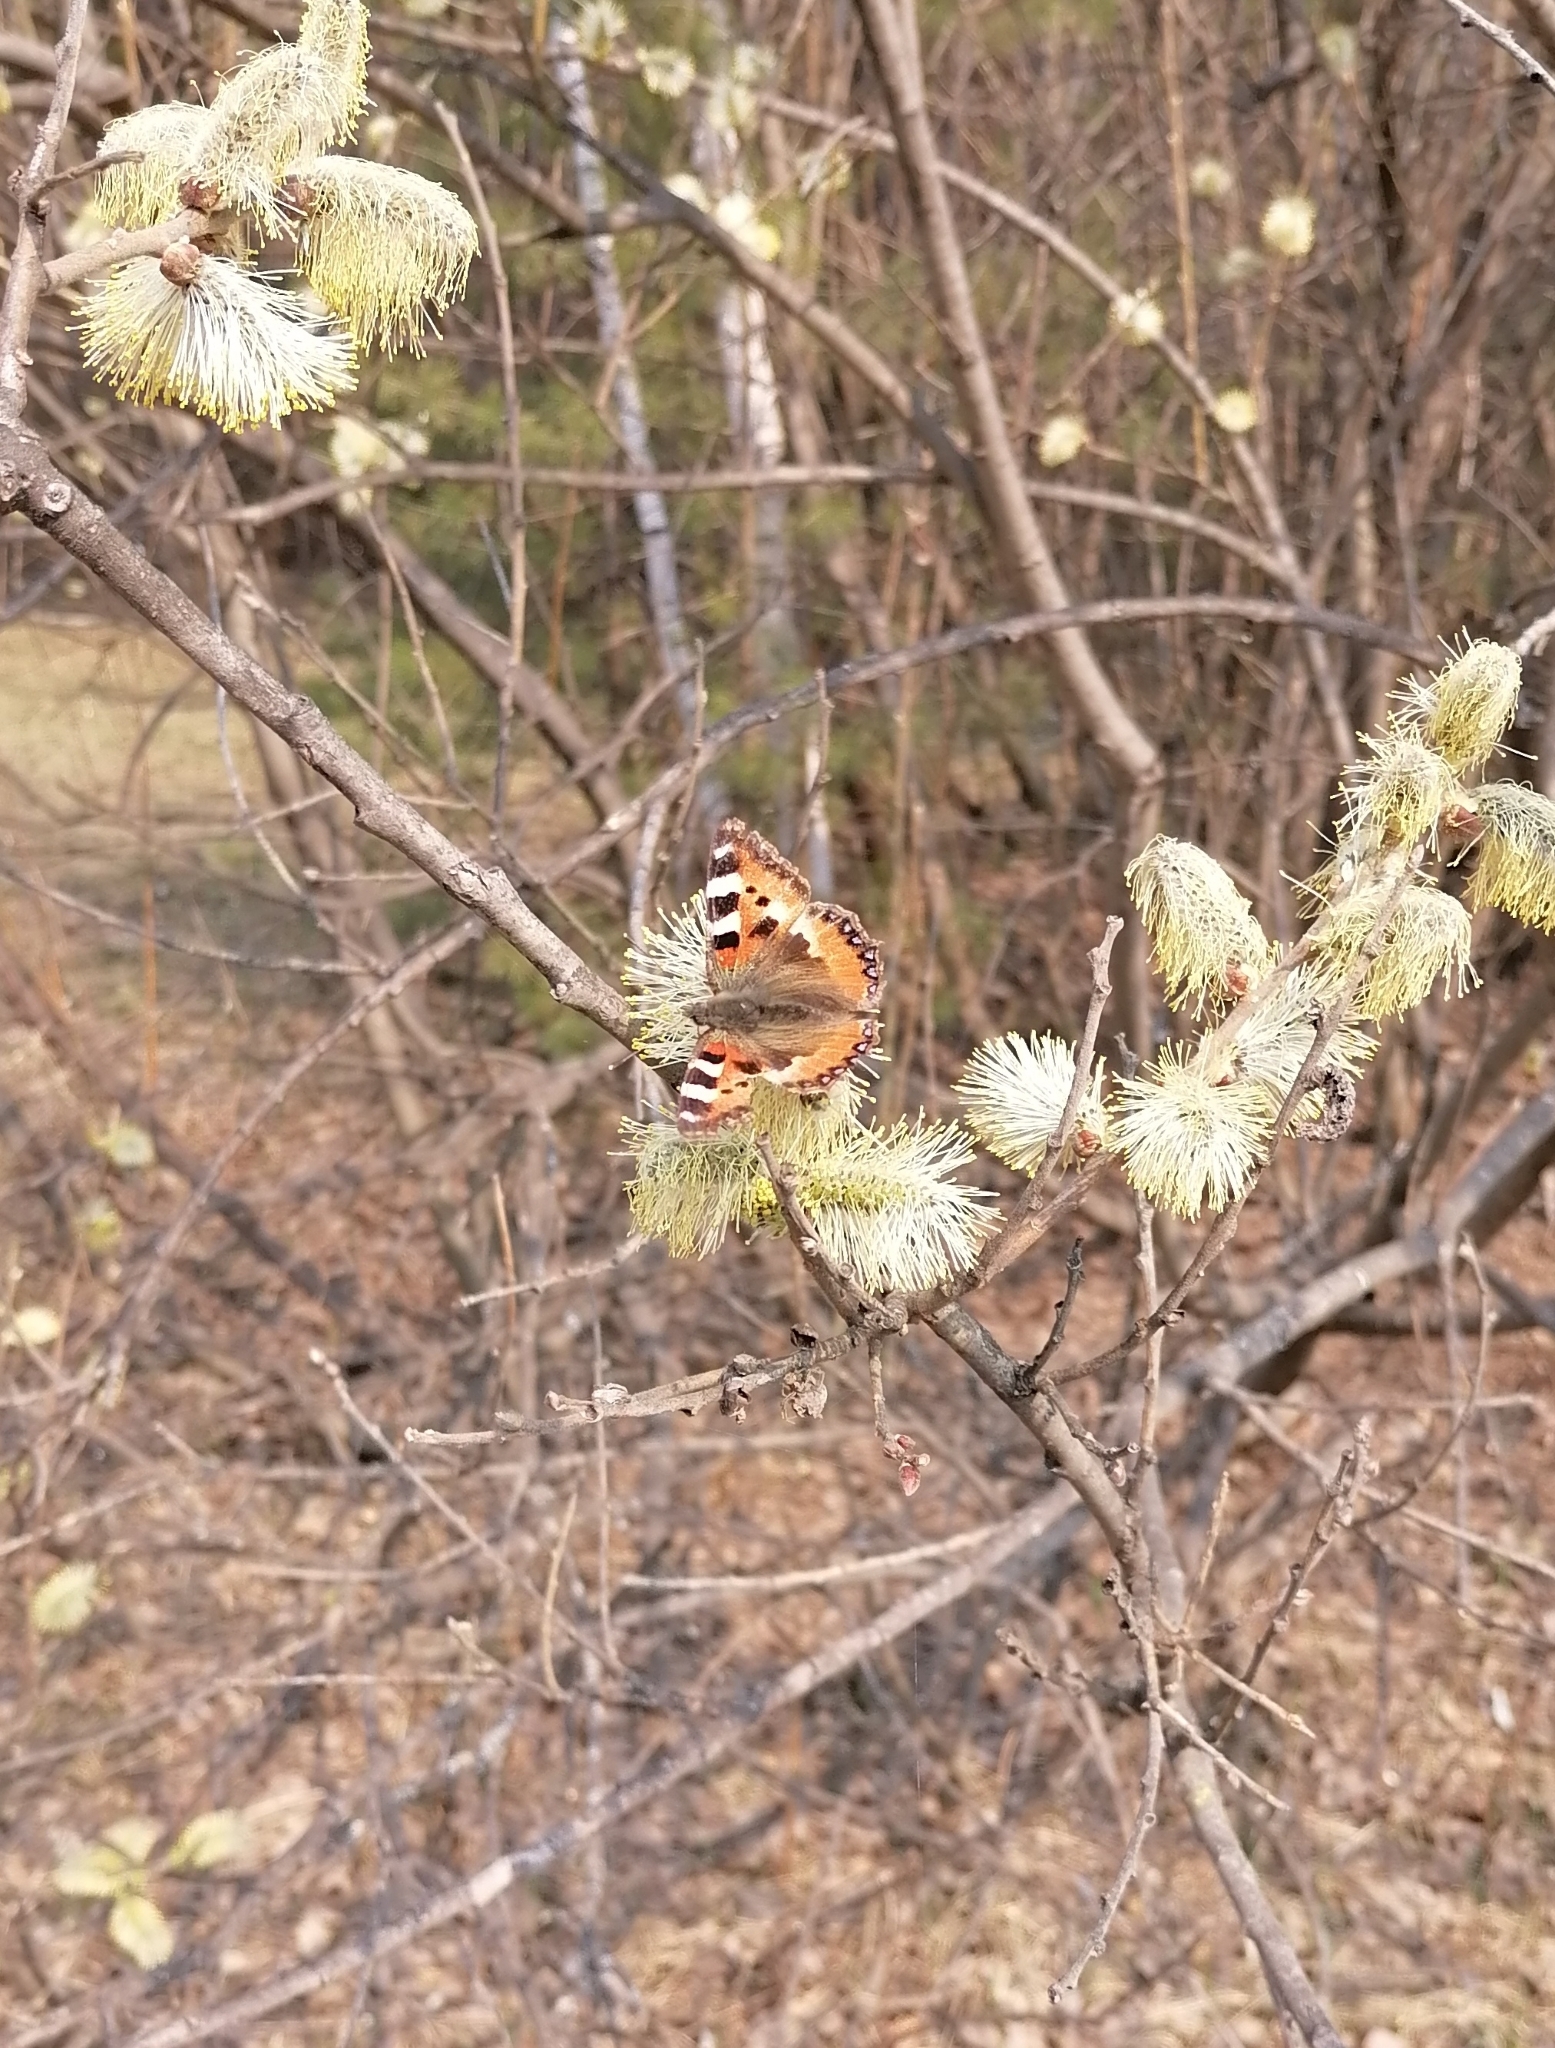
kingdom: Animalia
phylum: Arthropoda
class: Insecta
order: Lepidoptera
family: Nymphalidae
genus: Aglais
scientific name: Aglais urticae
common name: Small tortoiseshell
